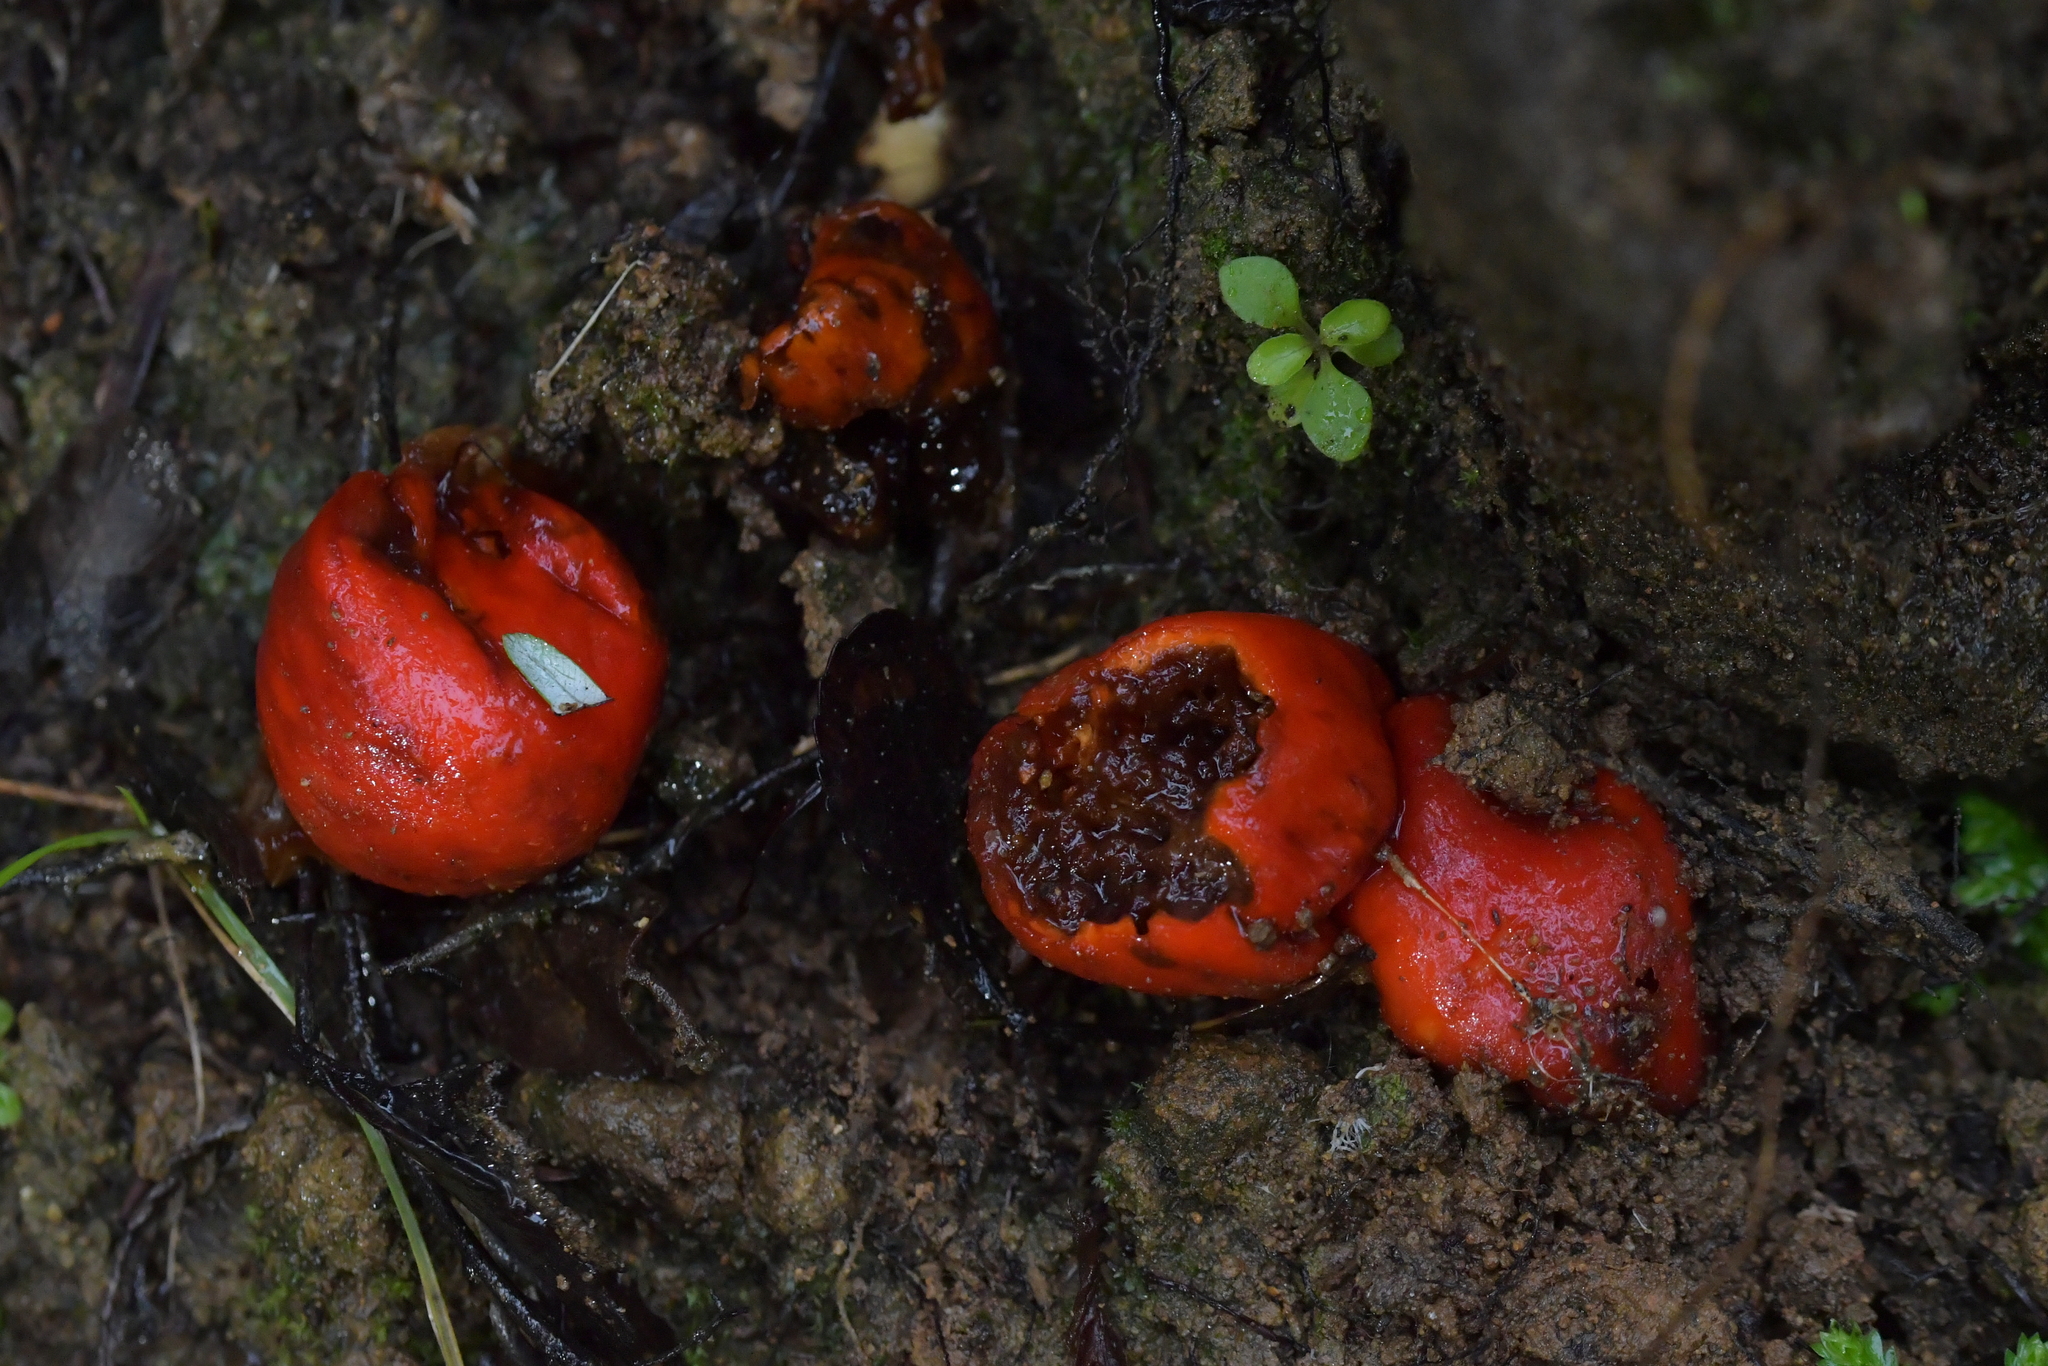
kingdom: Fungi
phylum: Basidiomycota
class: Agaricomycetes
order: Agaricales
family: Strophariaceae
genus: Leratiomyces
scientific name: Leratiomyces erythrocephalus
